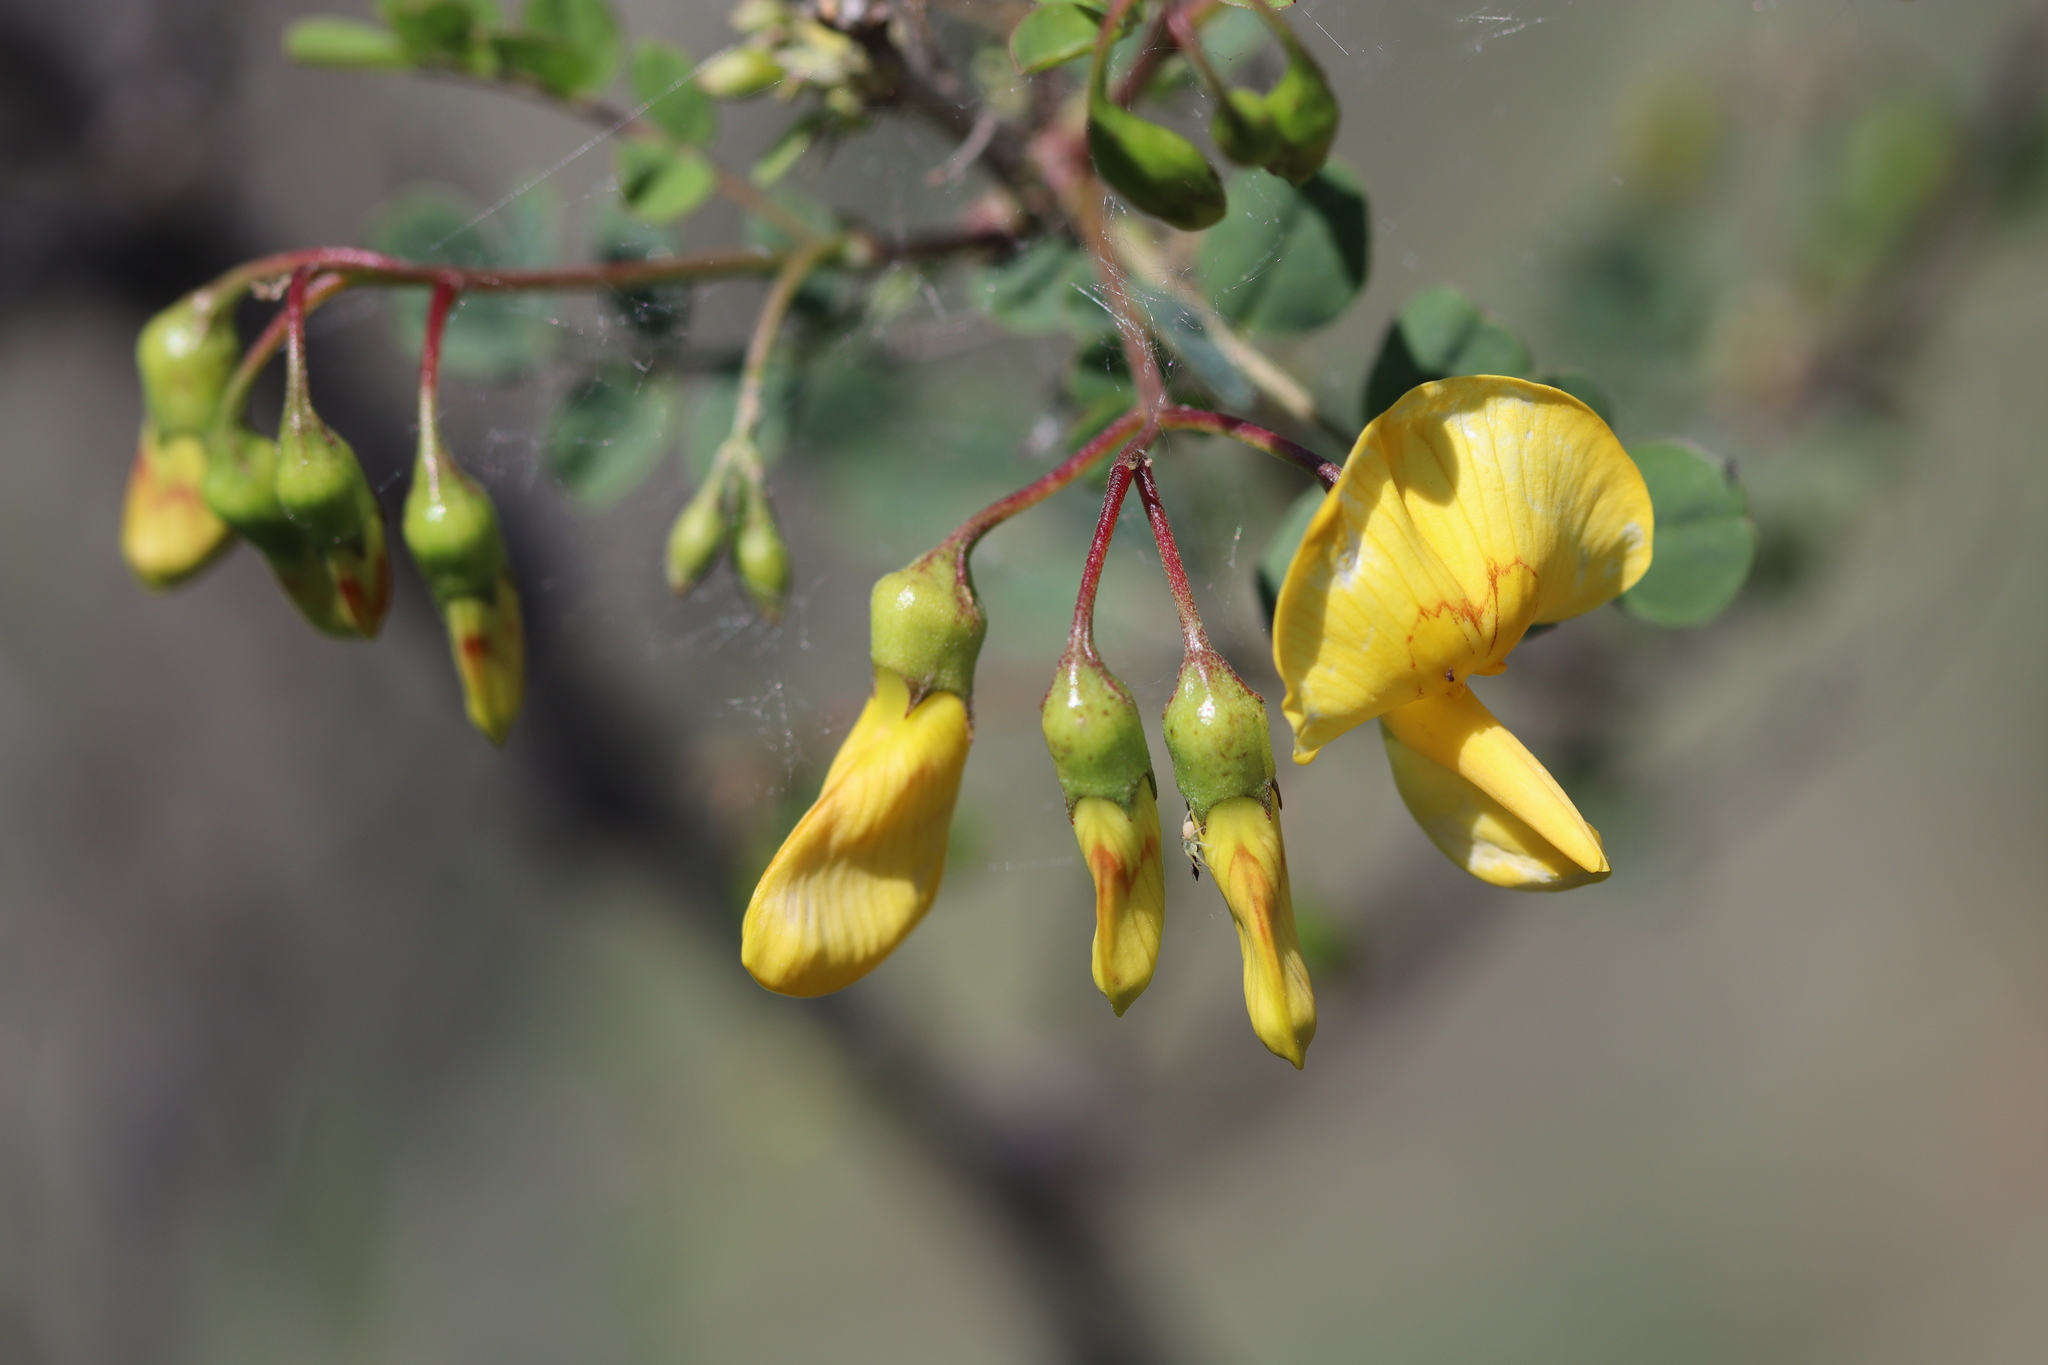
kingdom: Plantae
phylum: Tracheophyta
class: Magnoliopsida
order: Fabales
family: Fabaceae
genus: Colutea
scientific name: Colutea cilicica
